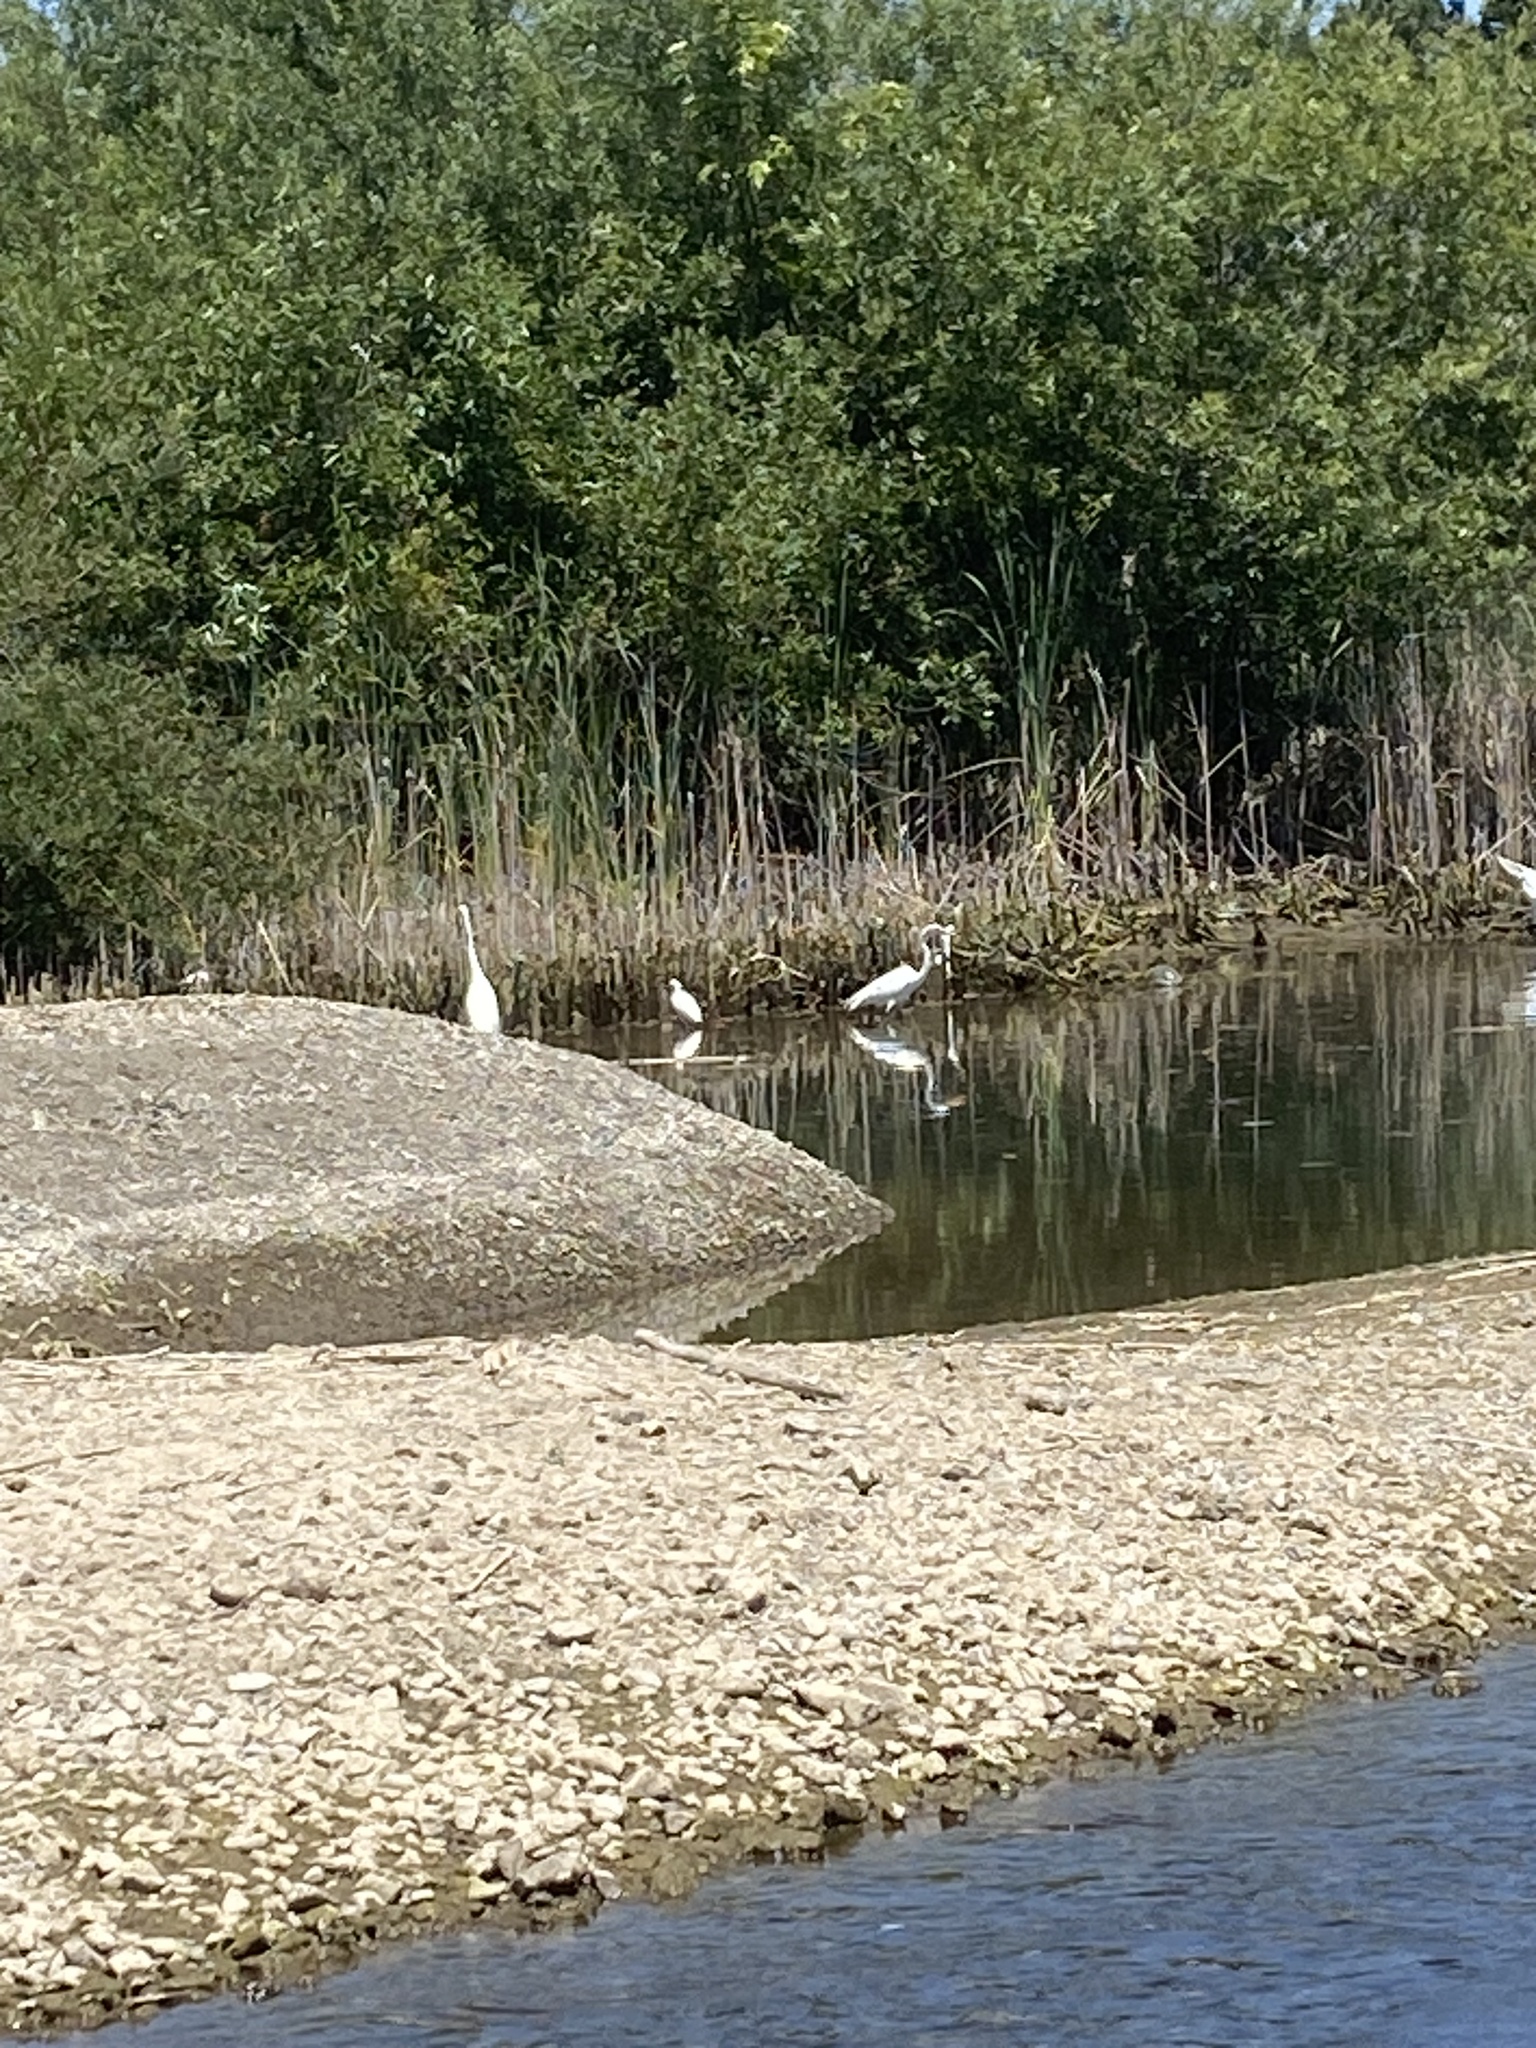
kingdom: Animalia
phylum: Chordata
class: Aves
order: Pelecaniformes
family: Ardeidae
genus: Ardea
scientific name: Ardea alba
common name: Great egret
